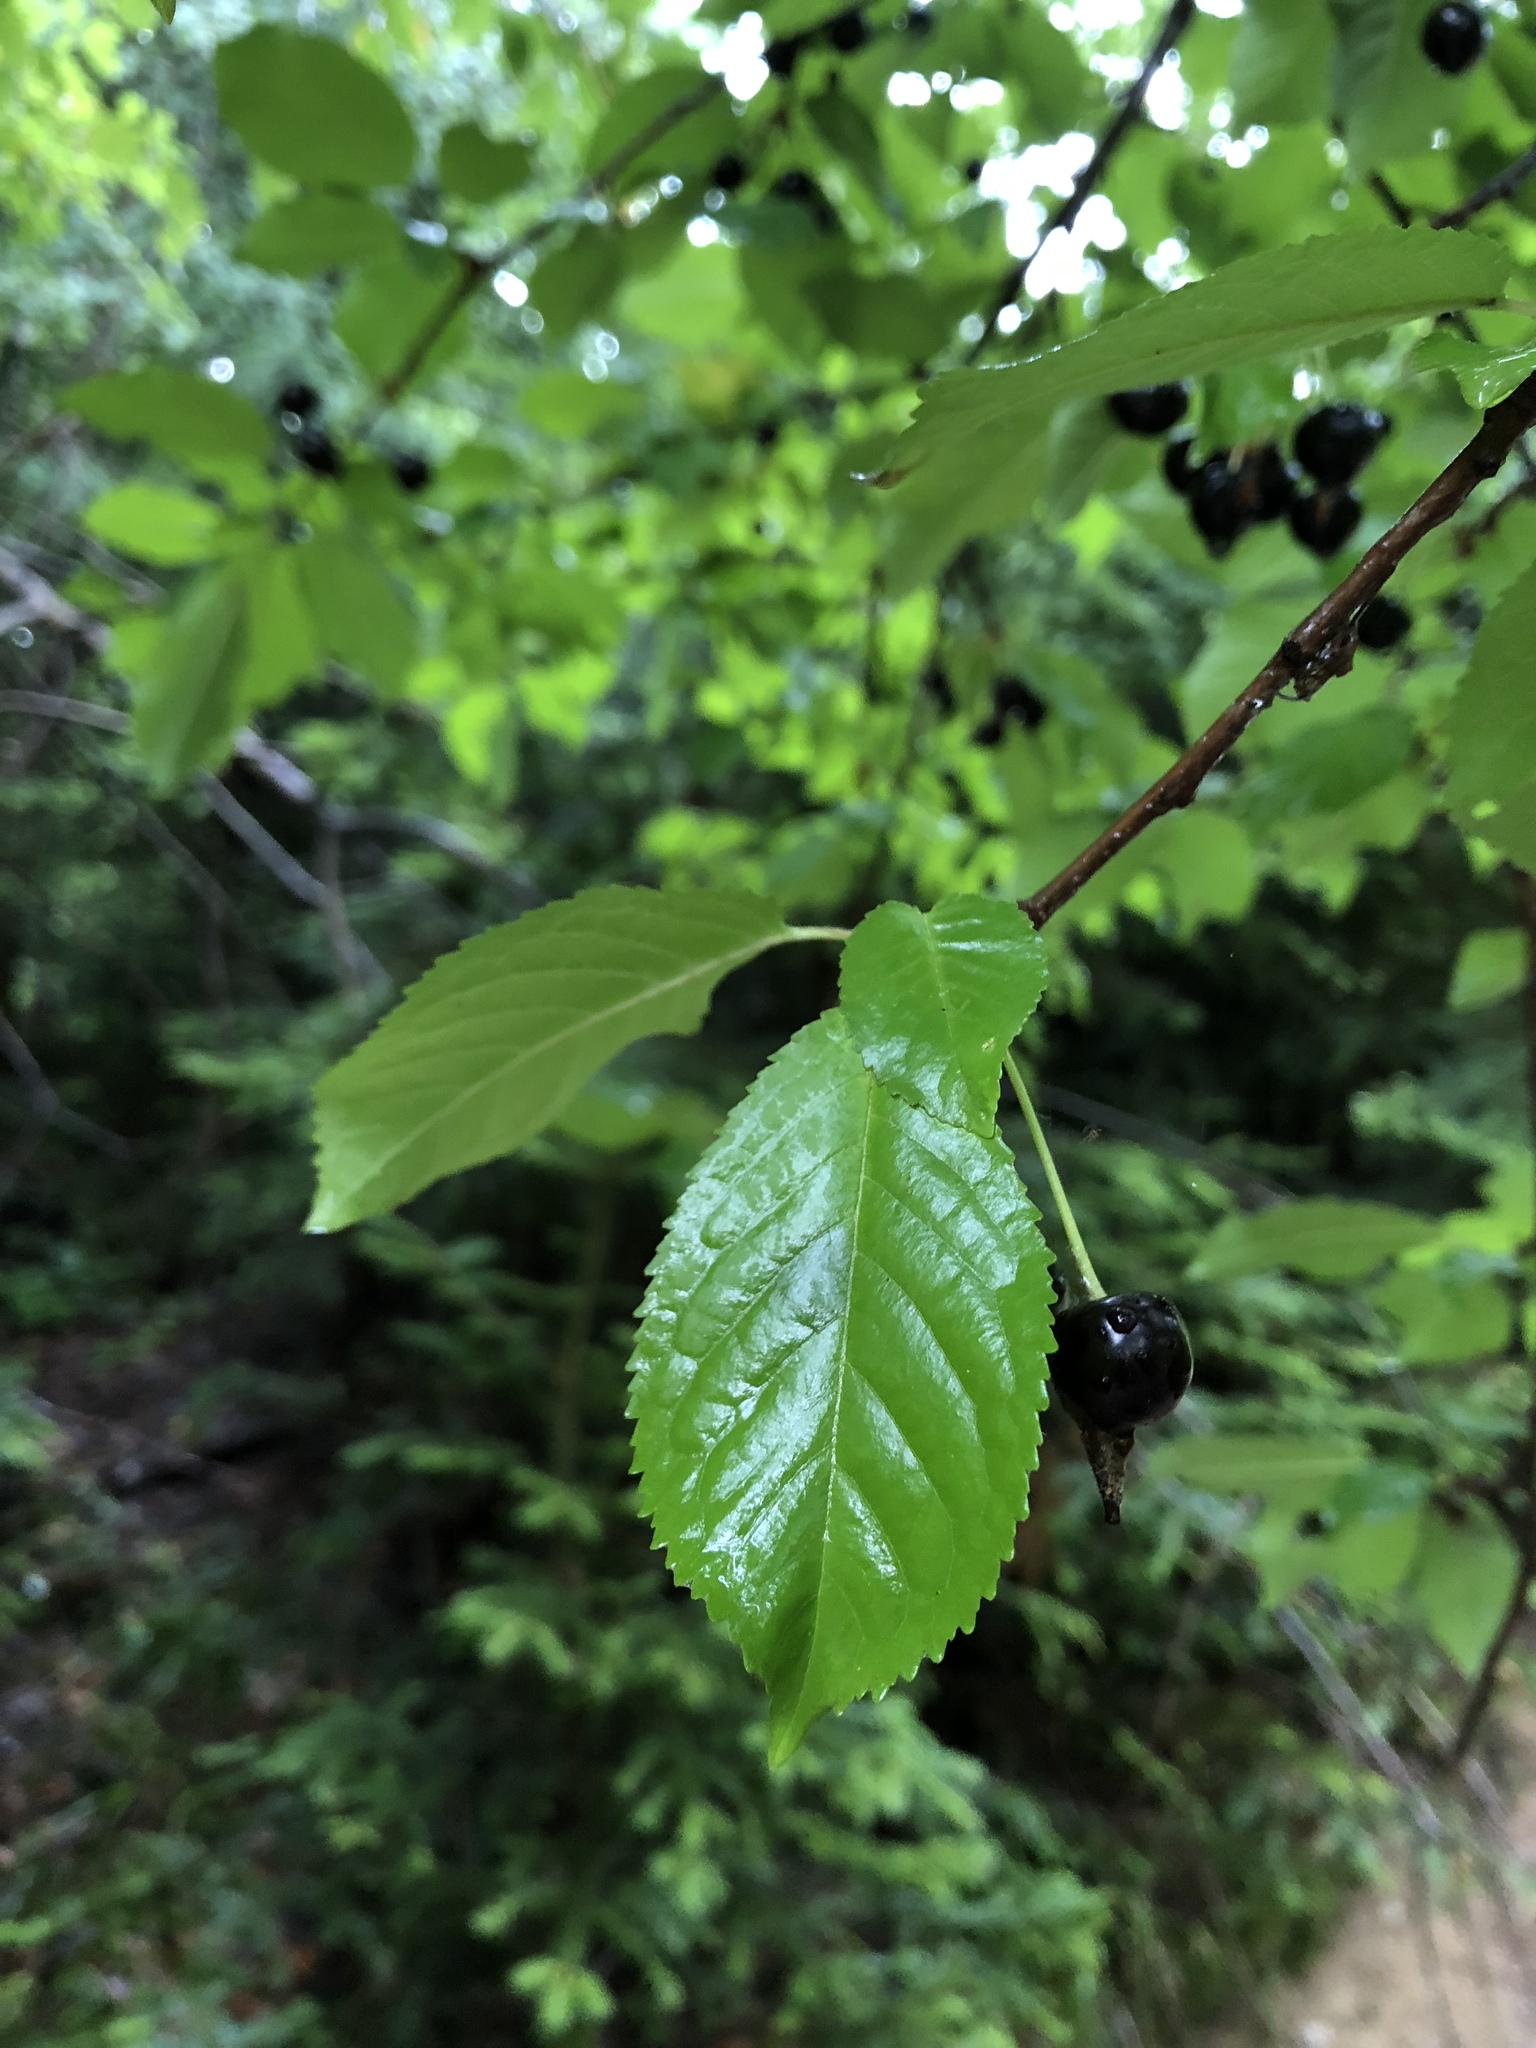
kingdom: Plantae
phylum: Tracheophyta
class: Magnoliopsida
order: Rosales
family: Rosaceae
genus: Prunus
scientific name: Prunus avium
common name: Sweet cherry
